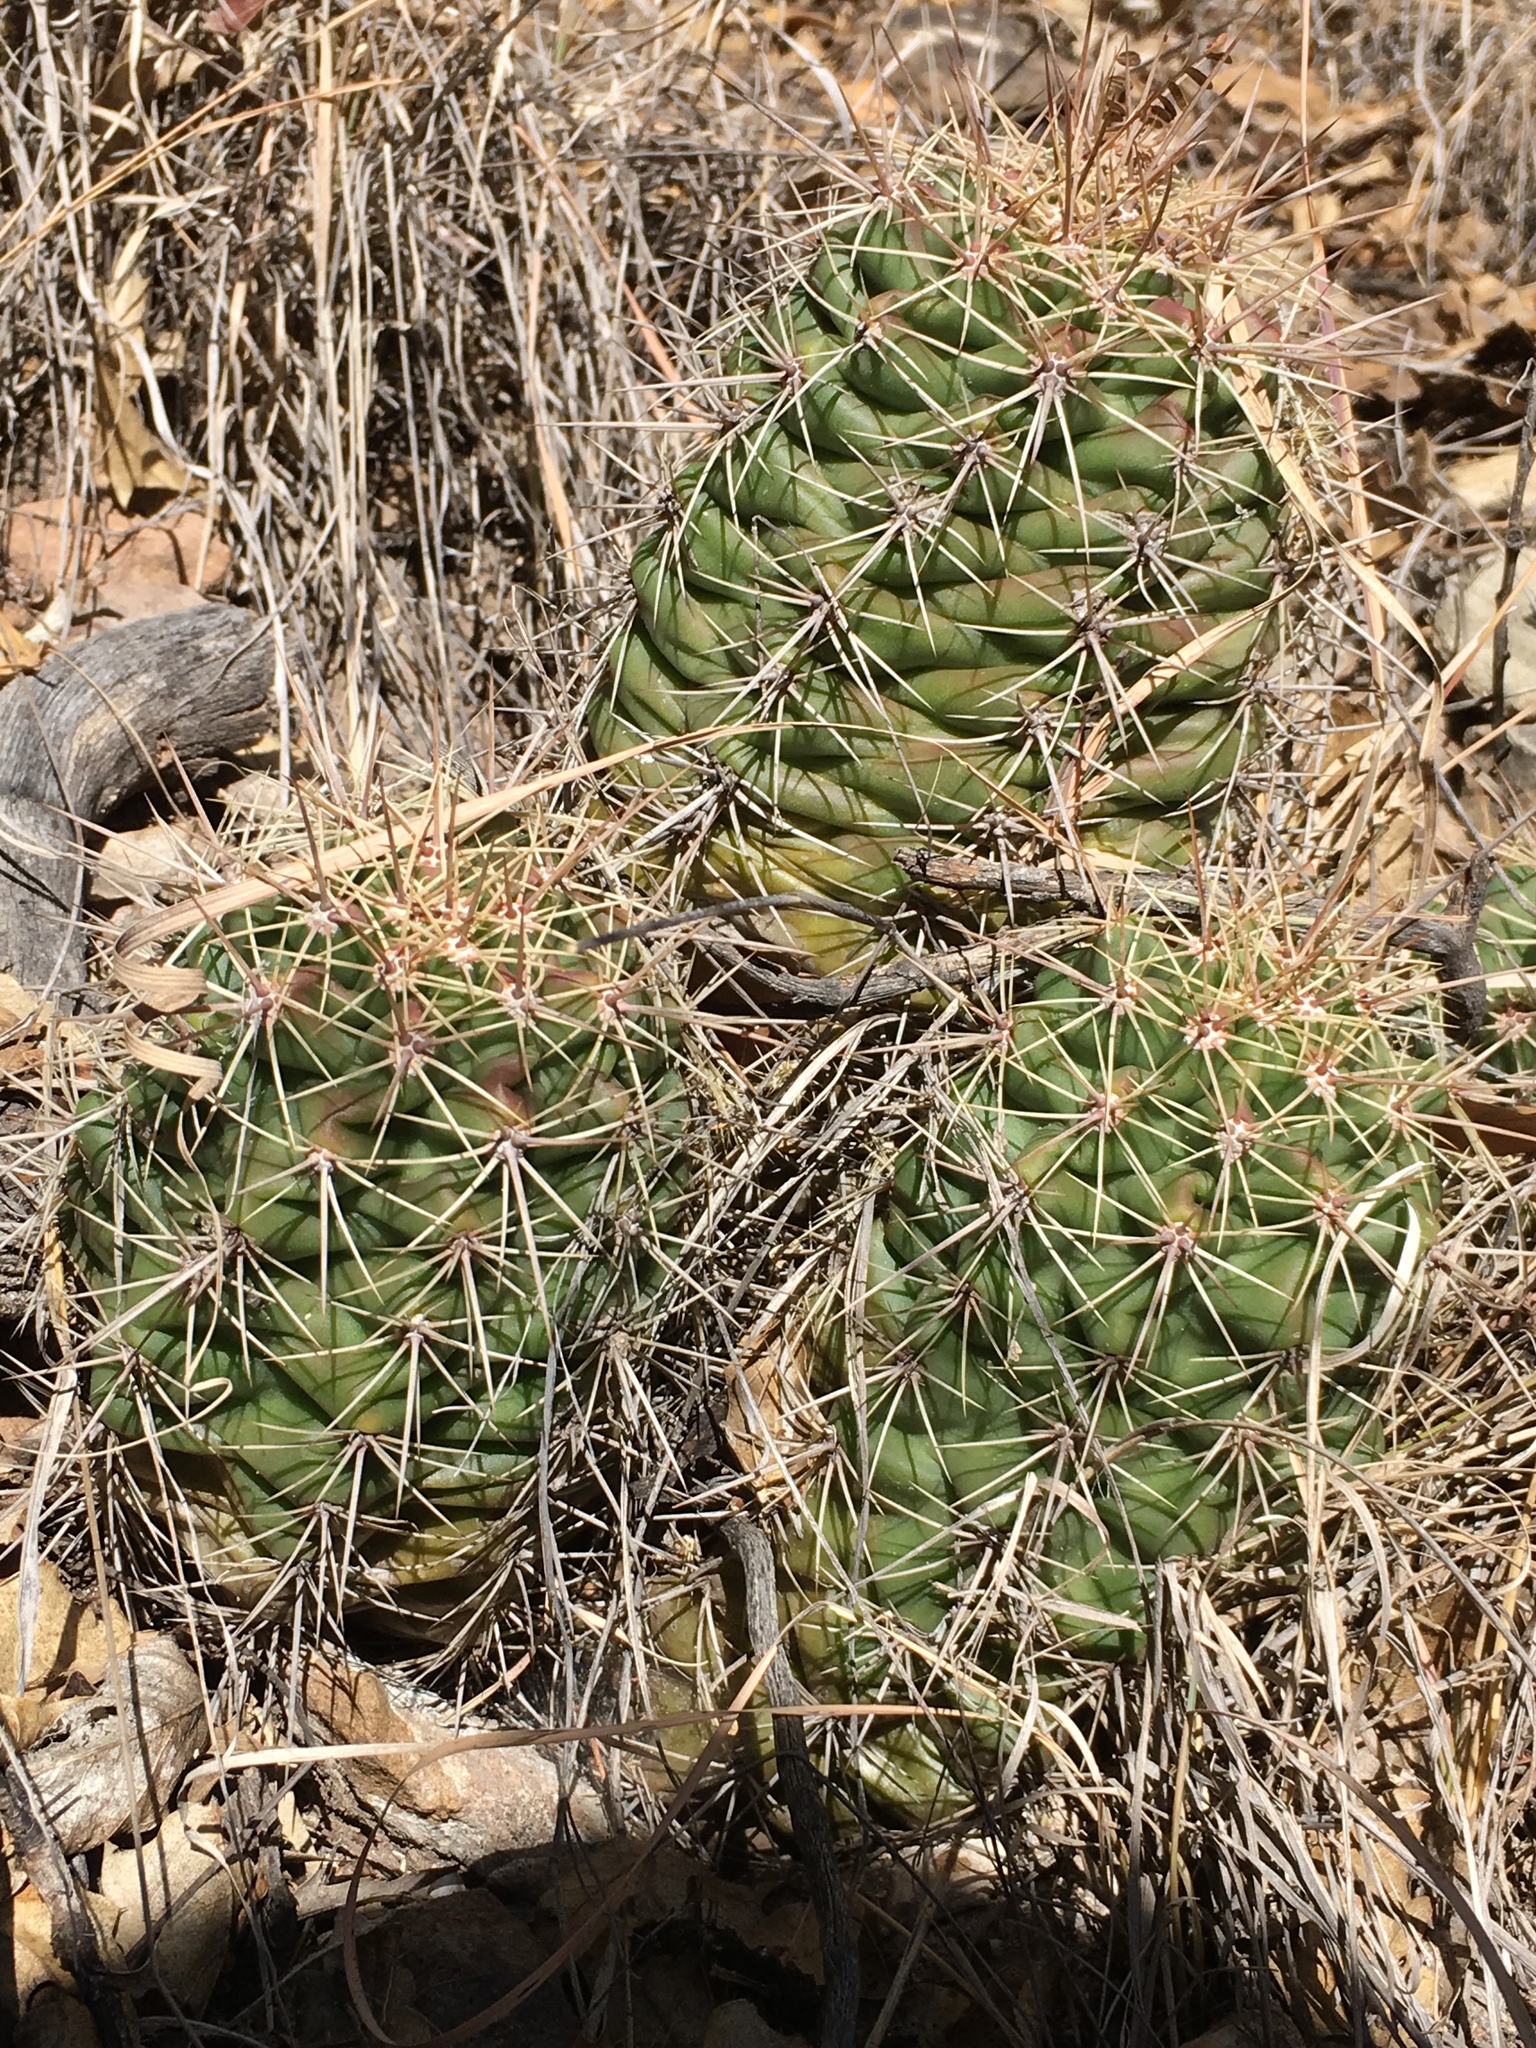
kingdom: Plantae
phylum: Tracheophyta
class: Magnoliopsida
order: Caryophyllales
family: Cactaceae
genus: Echinocereus
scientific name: Echinocereus coccineus
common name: Scarlet hedgehog cactus
